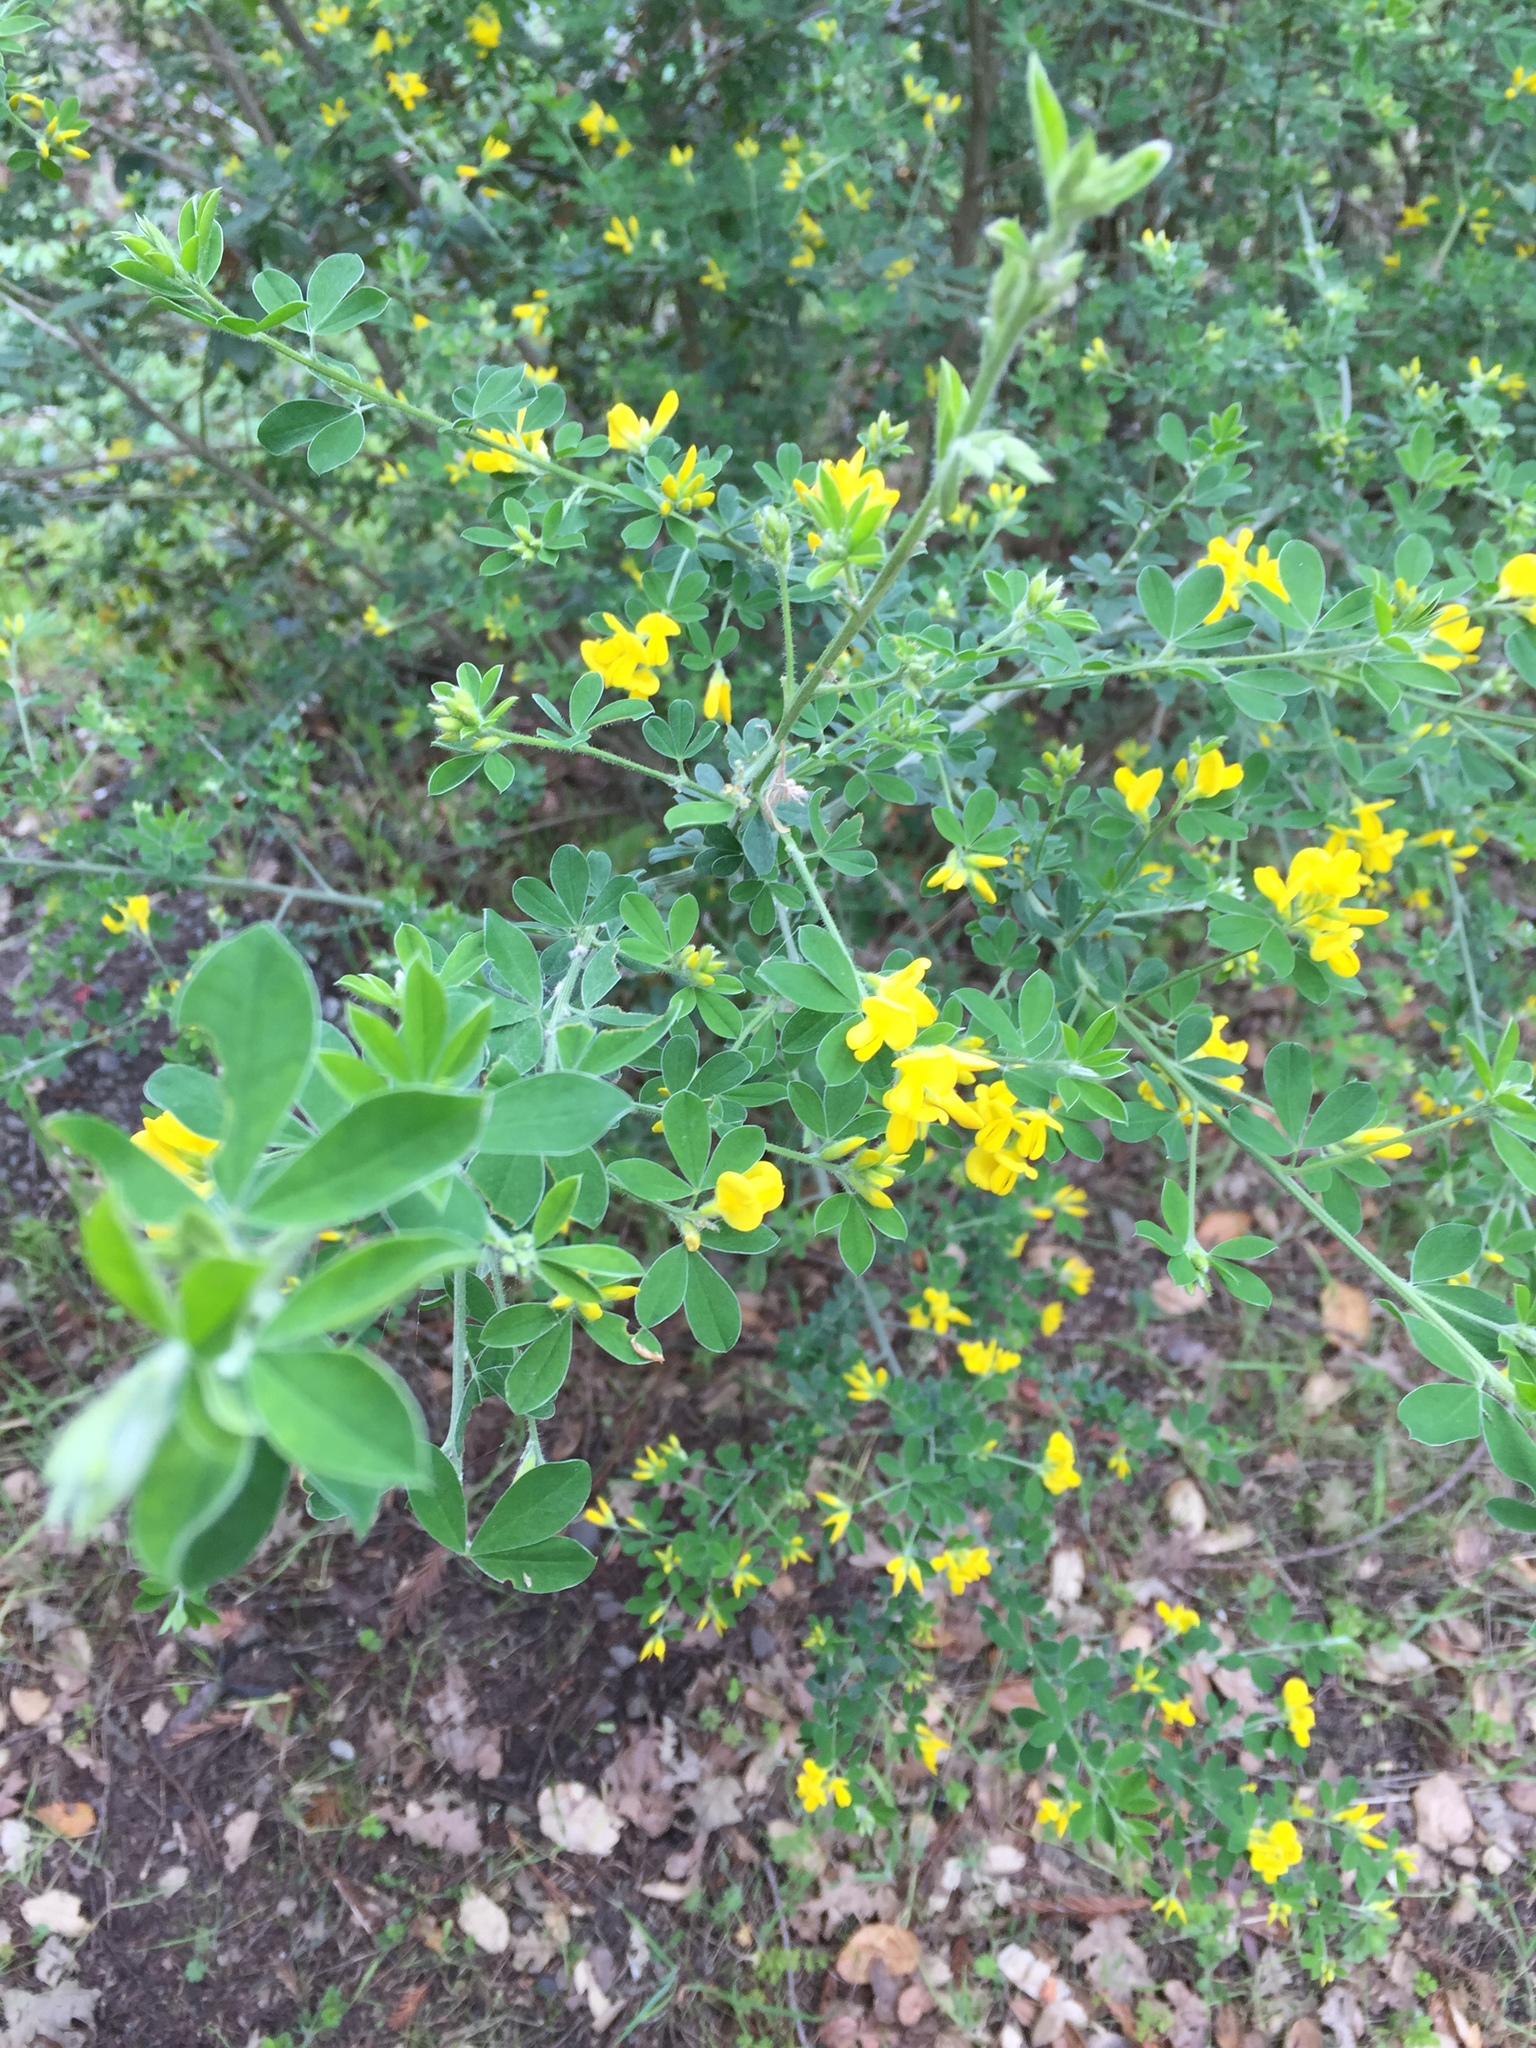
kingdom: Plantae
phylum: Tracheophyta
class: Magnoliopsida
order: Fabales
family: Fabaceae
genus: Genista
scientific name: Genista monspessulana
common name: Montpellier broom
